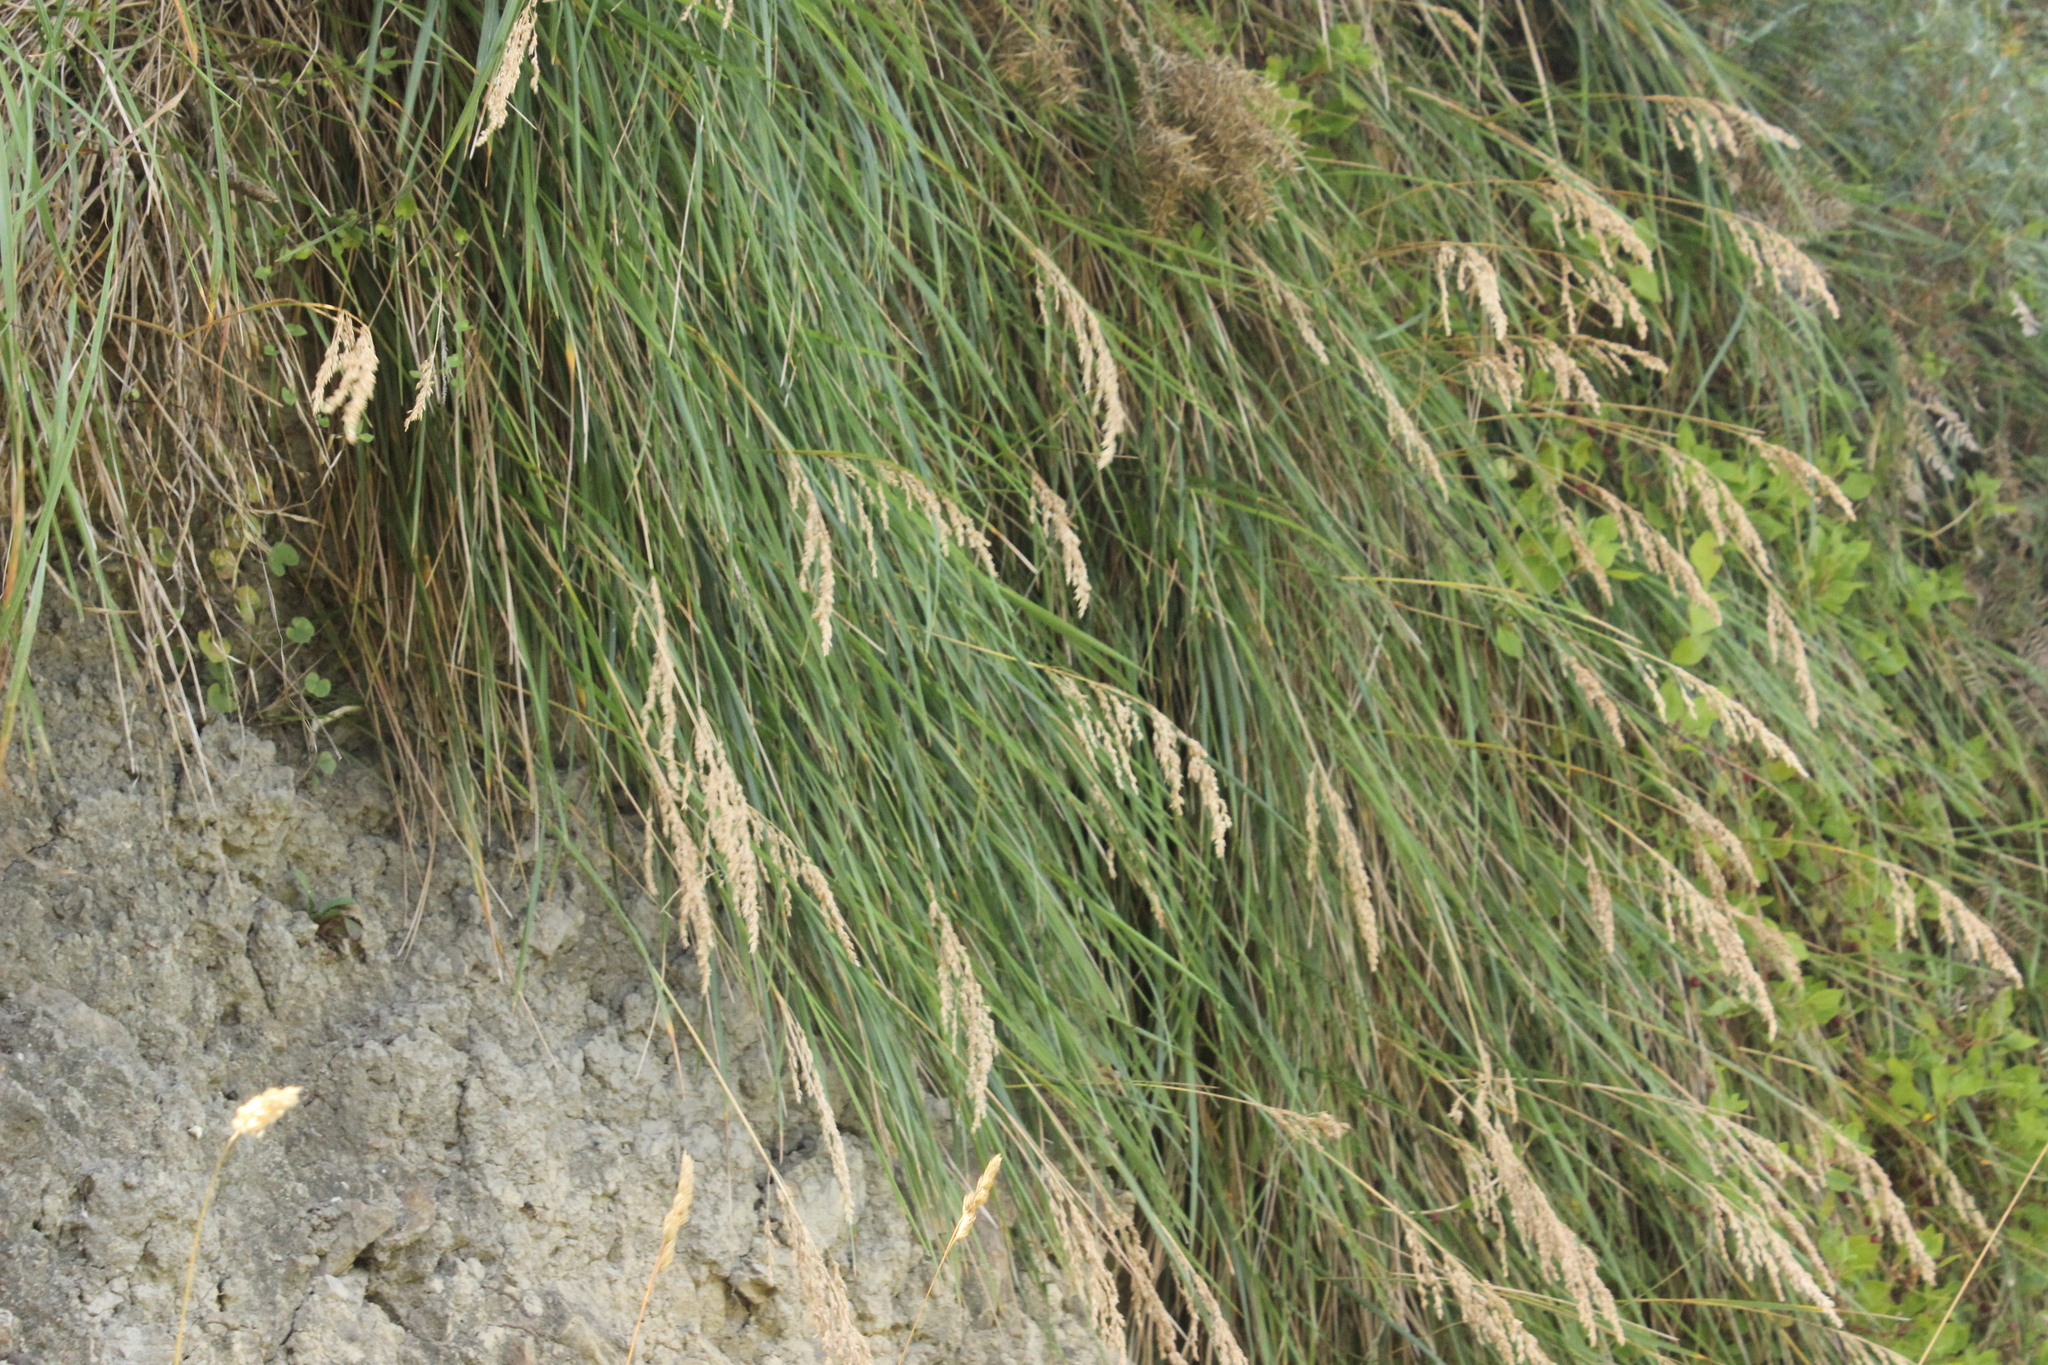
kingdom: Plantae
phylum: Tracheophyta
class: Liliopsida
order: Poales
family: Poaceae
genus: Poa
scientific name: Poa anceps
